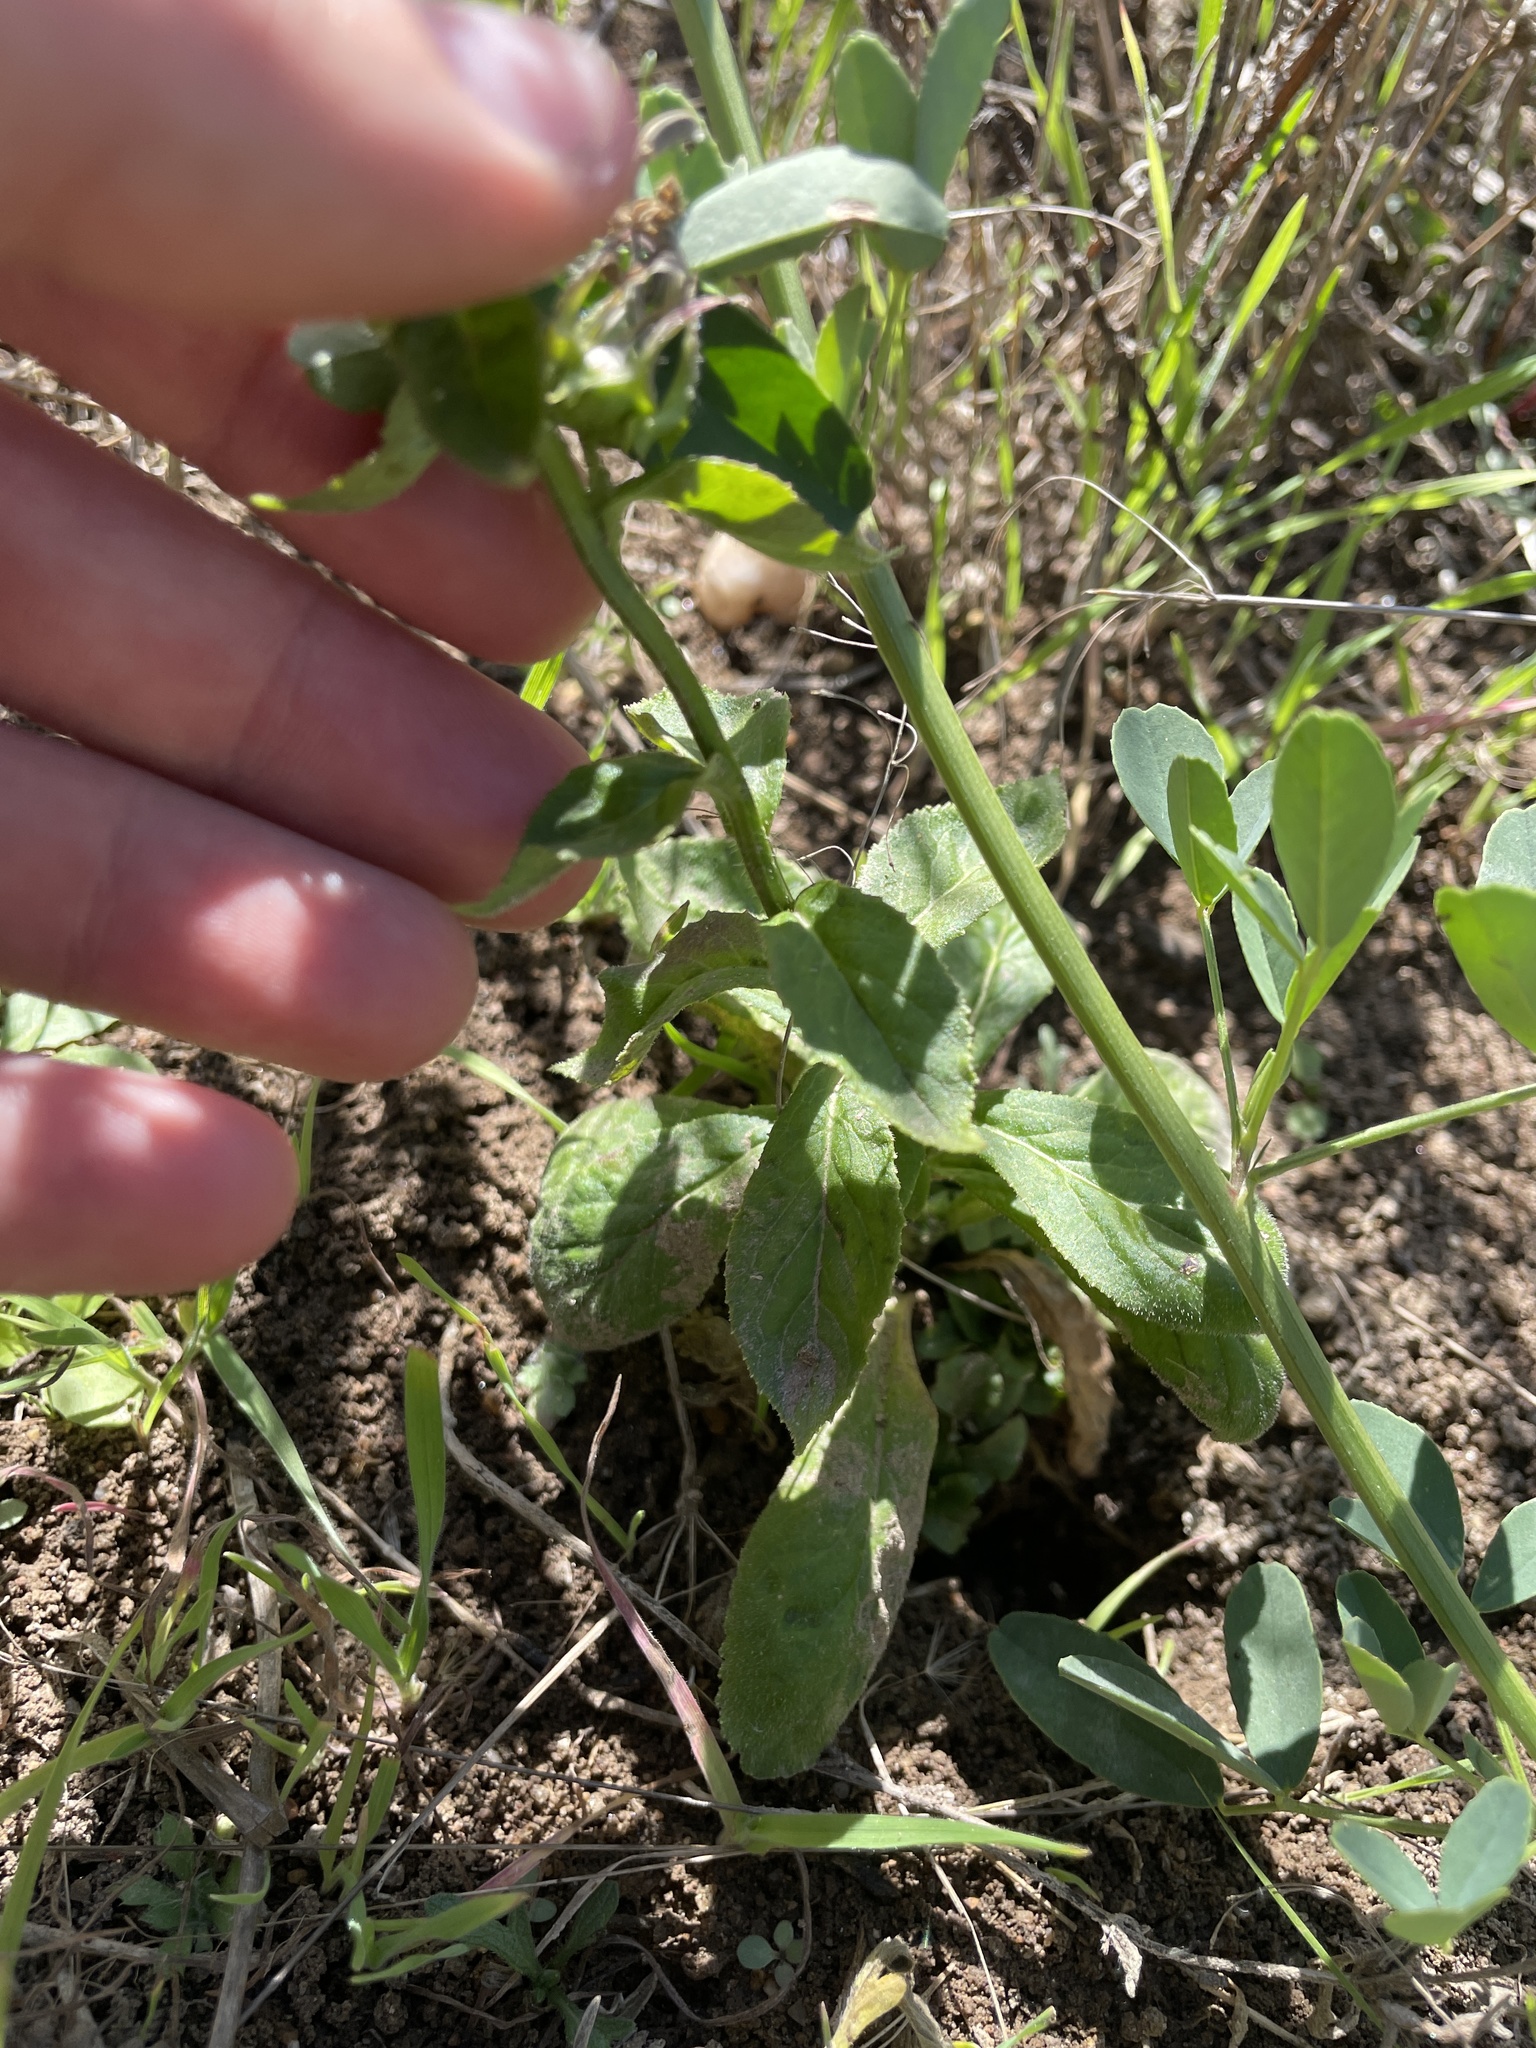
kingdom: Plantae
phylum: Tracheophyta
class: Magnoliopsida
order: Asterales
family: Campanulaceae
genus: Lobelia
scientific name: Lobelia siphilitica
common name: Great lobelia
